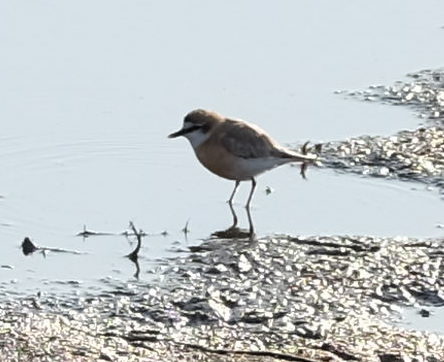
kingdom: Animalia
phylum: Chordata
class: Aves
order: Charadriiformes
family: Charadriidae
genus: Anarhynchus
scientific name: Anarhynchus
